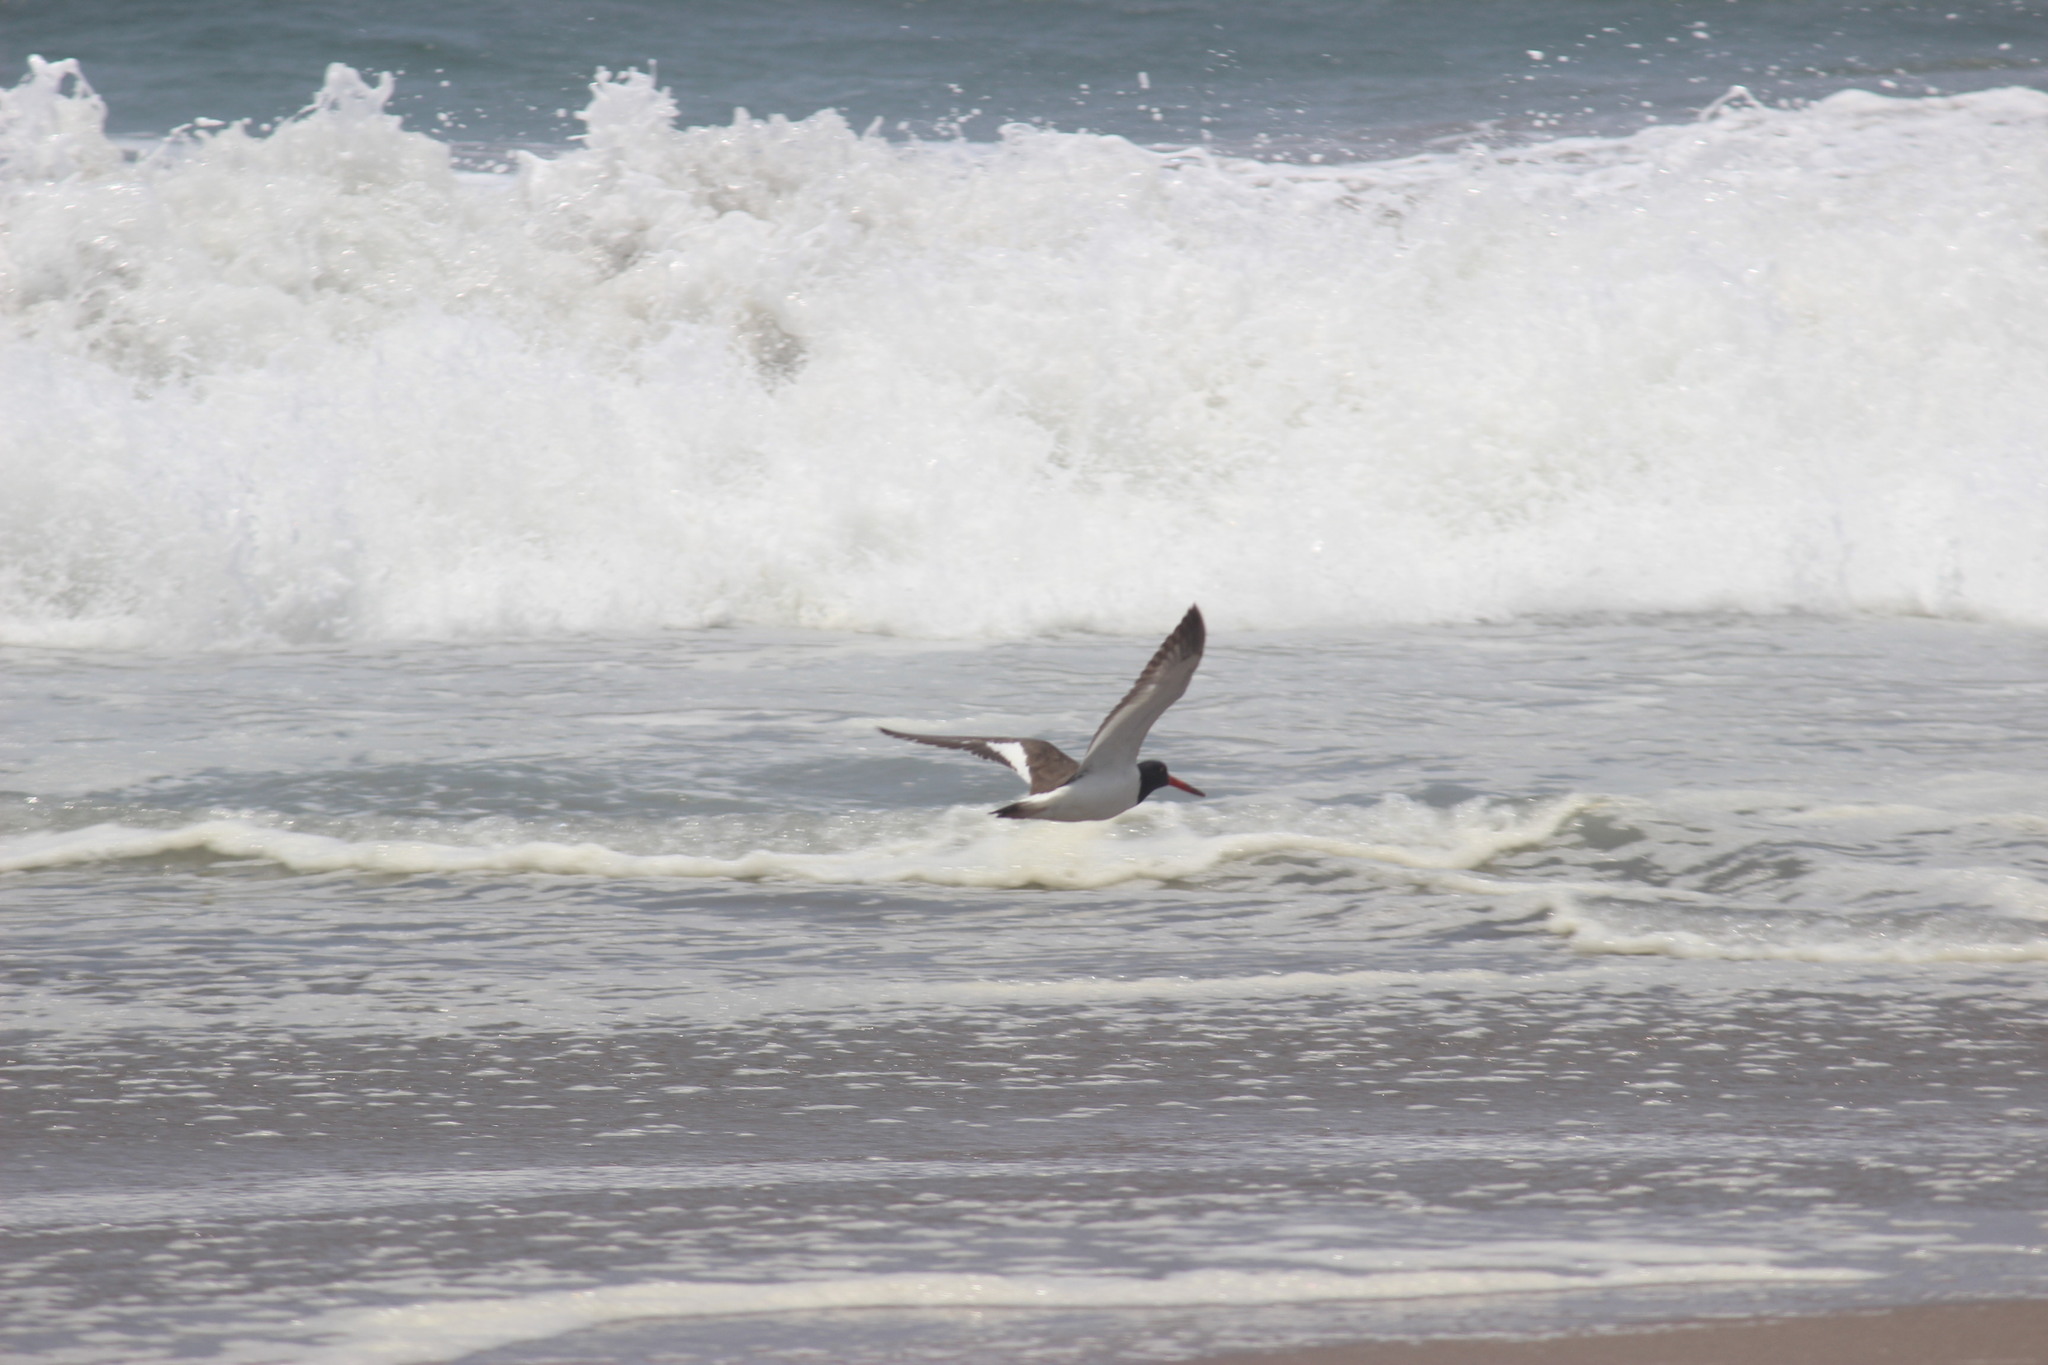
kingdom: Animalia
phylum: Chordata
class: Aves
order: Charadriiformes
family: Haematopodidae
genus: Haematopus
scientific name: Haematopus palliatus
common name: American oystercatcher
